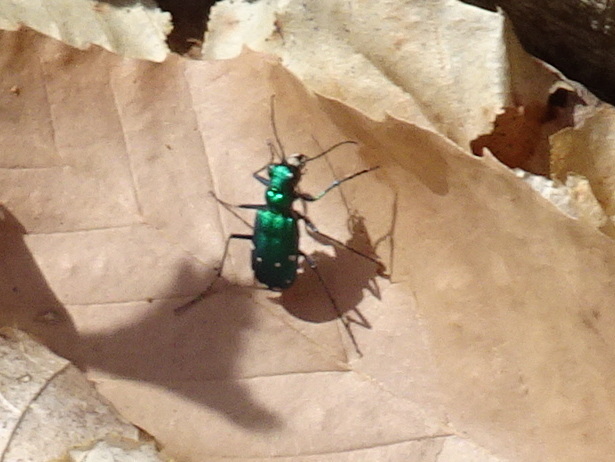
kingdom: Animalia
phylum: Arthropoda
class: Insecta
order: Coleoptera
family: Carabidae
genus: Cicindela
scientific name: Cicindela sexguttata
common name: Six-spotted tiger beetle
